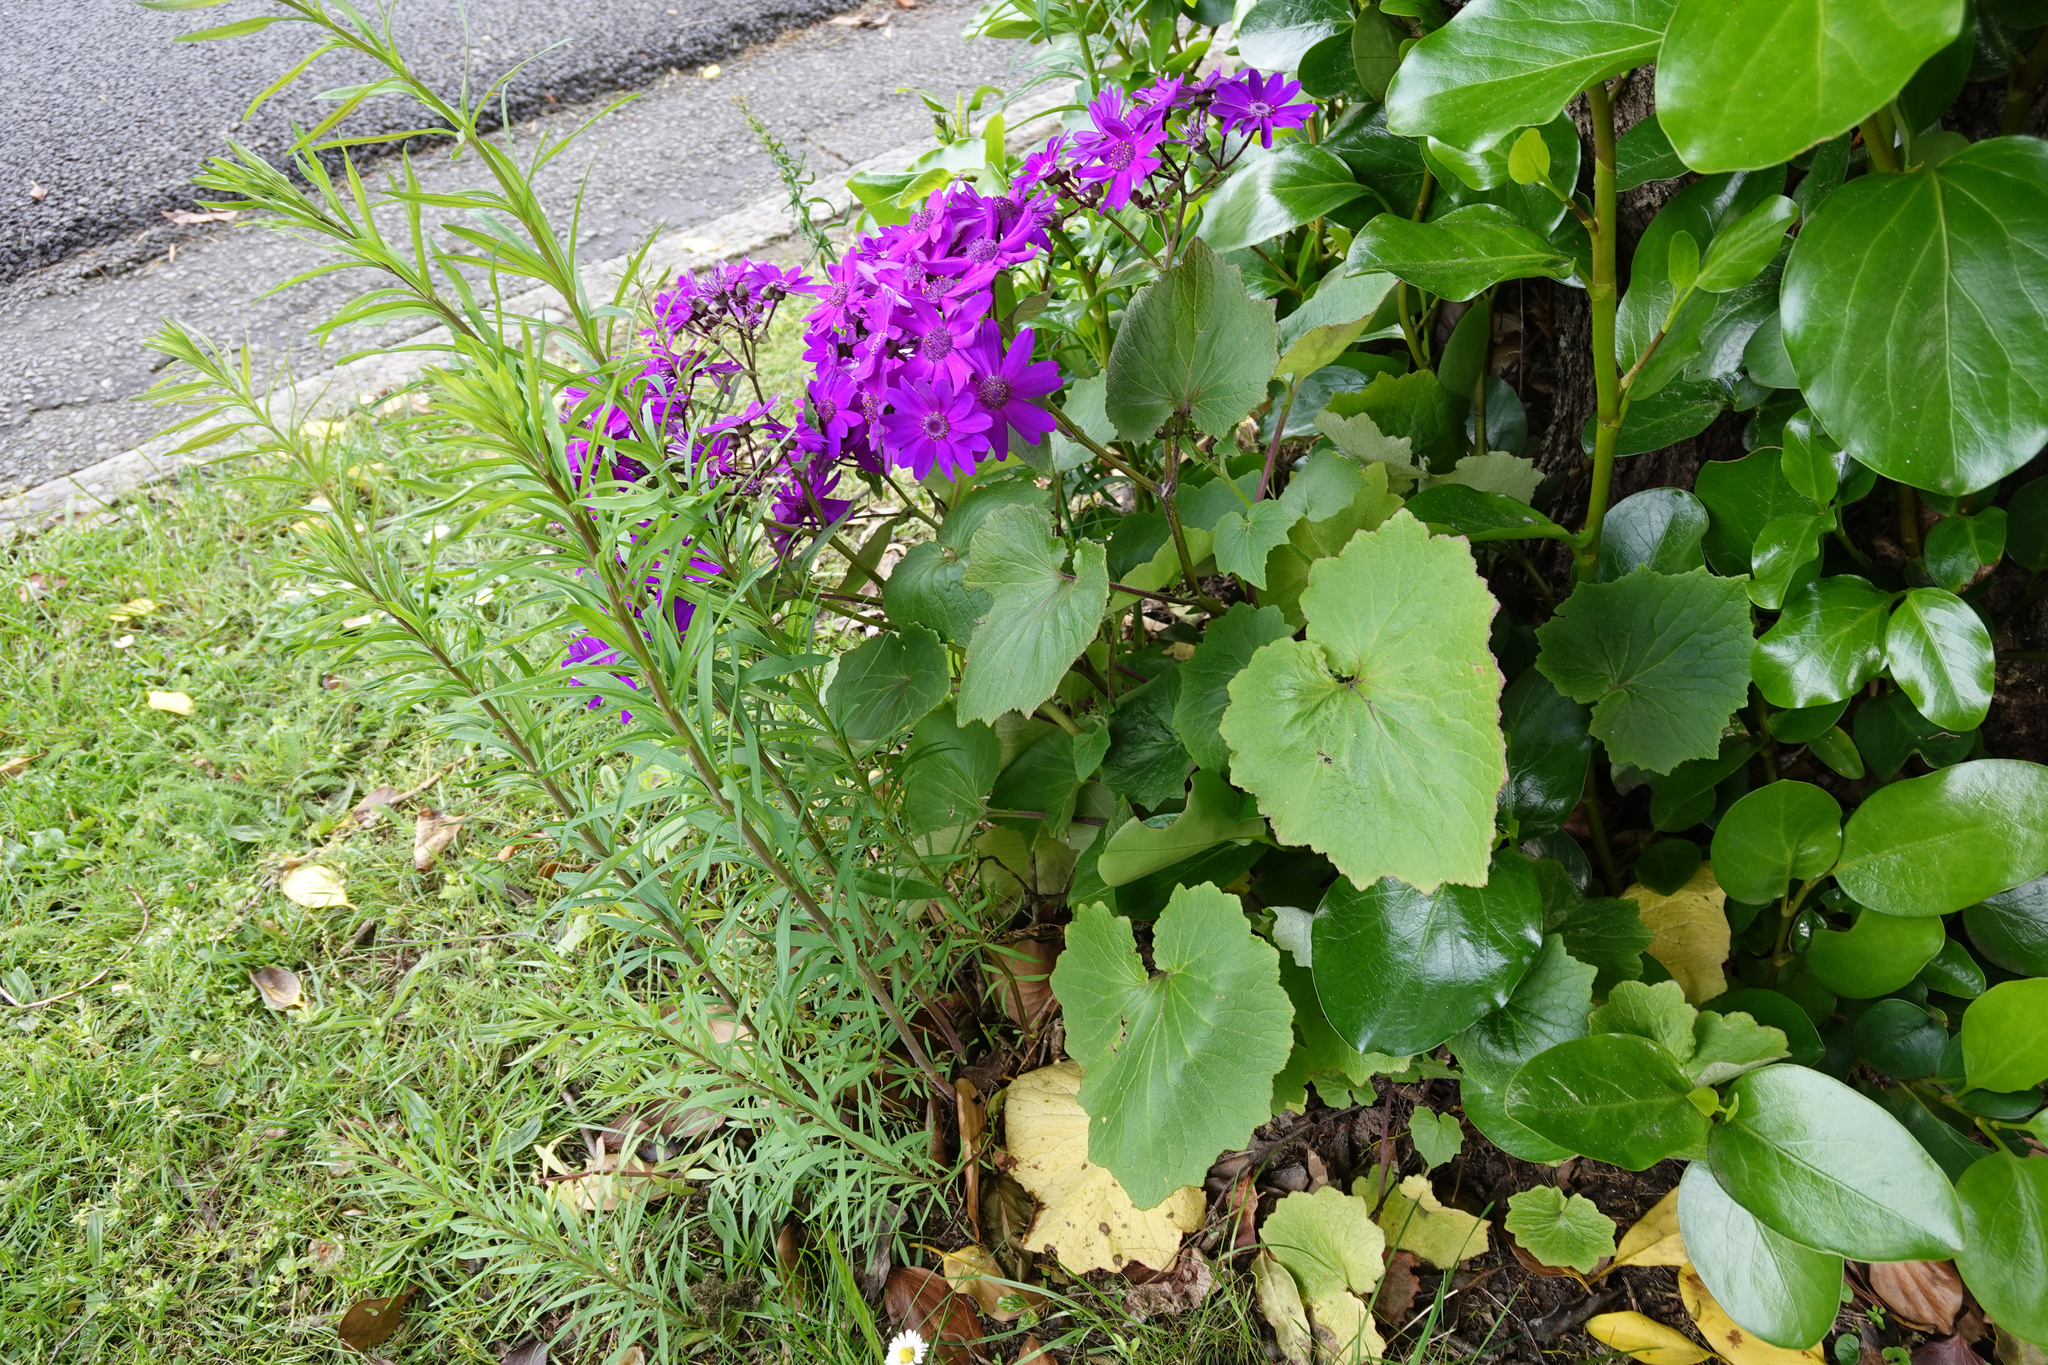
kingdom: Plantae
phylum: Tracheophyta
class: Magnoliopsida
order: Asterales
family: Asteraceae
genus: Pericallis
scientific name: Pericallis hybrida
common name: Cineraria
